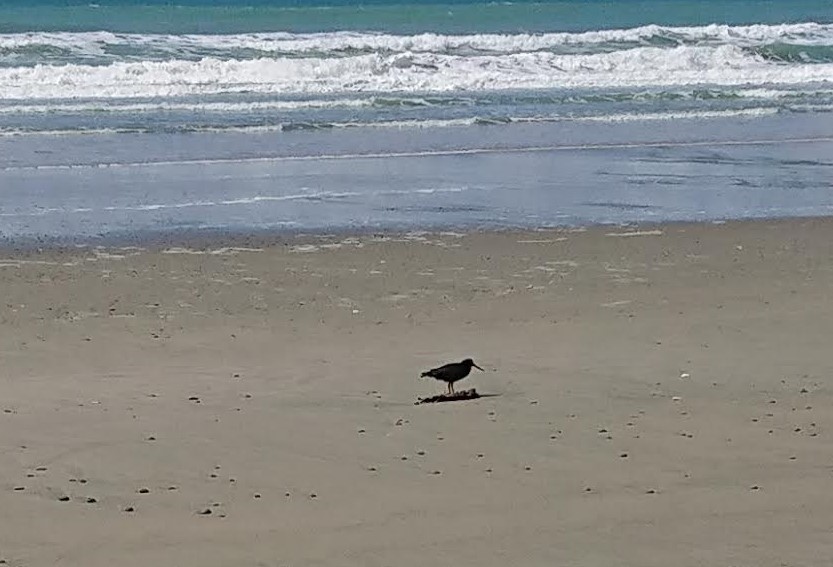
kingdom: Animalia
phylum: Chordata
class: Aves
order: Charadriiformes
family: Haematopodidae
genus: Haematopus
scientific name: Haematopus unicolor
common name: Variable oystercatcher
